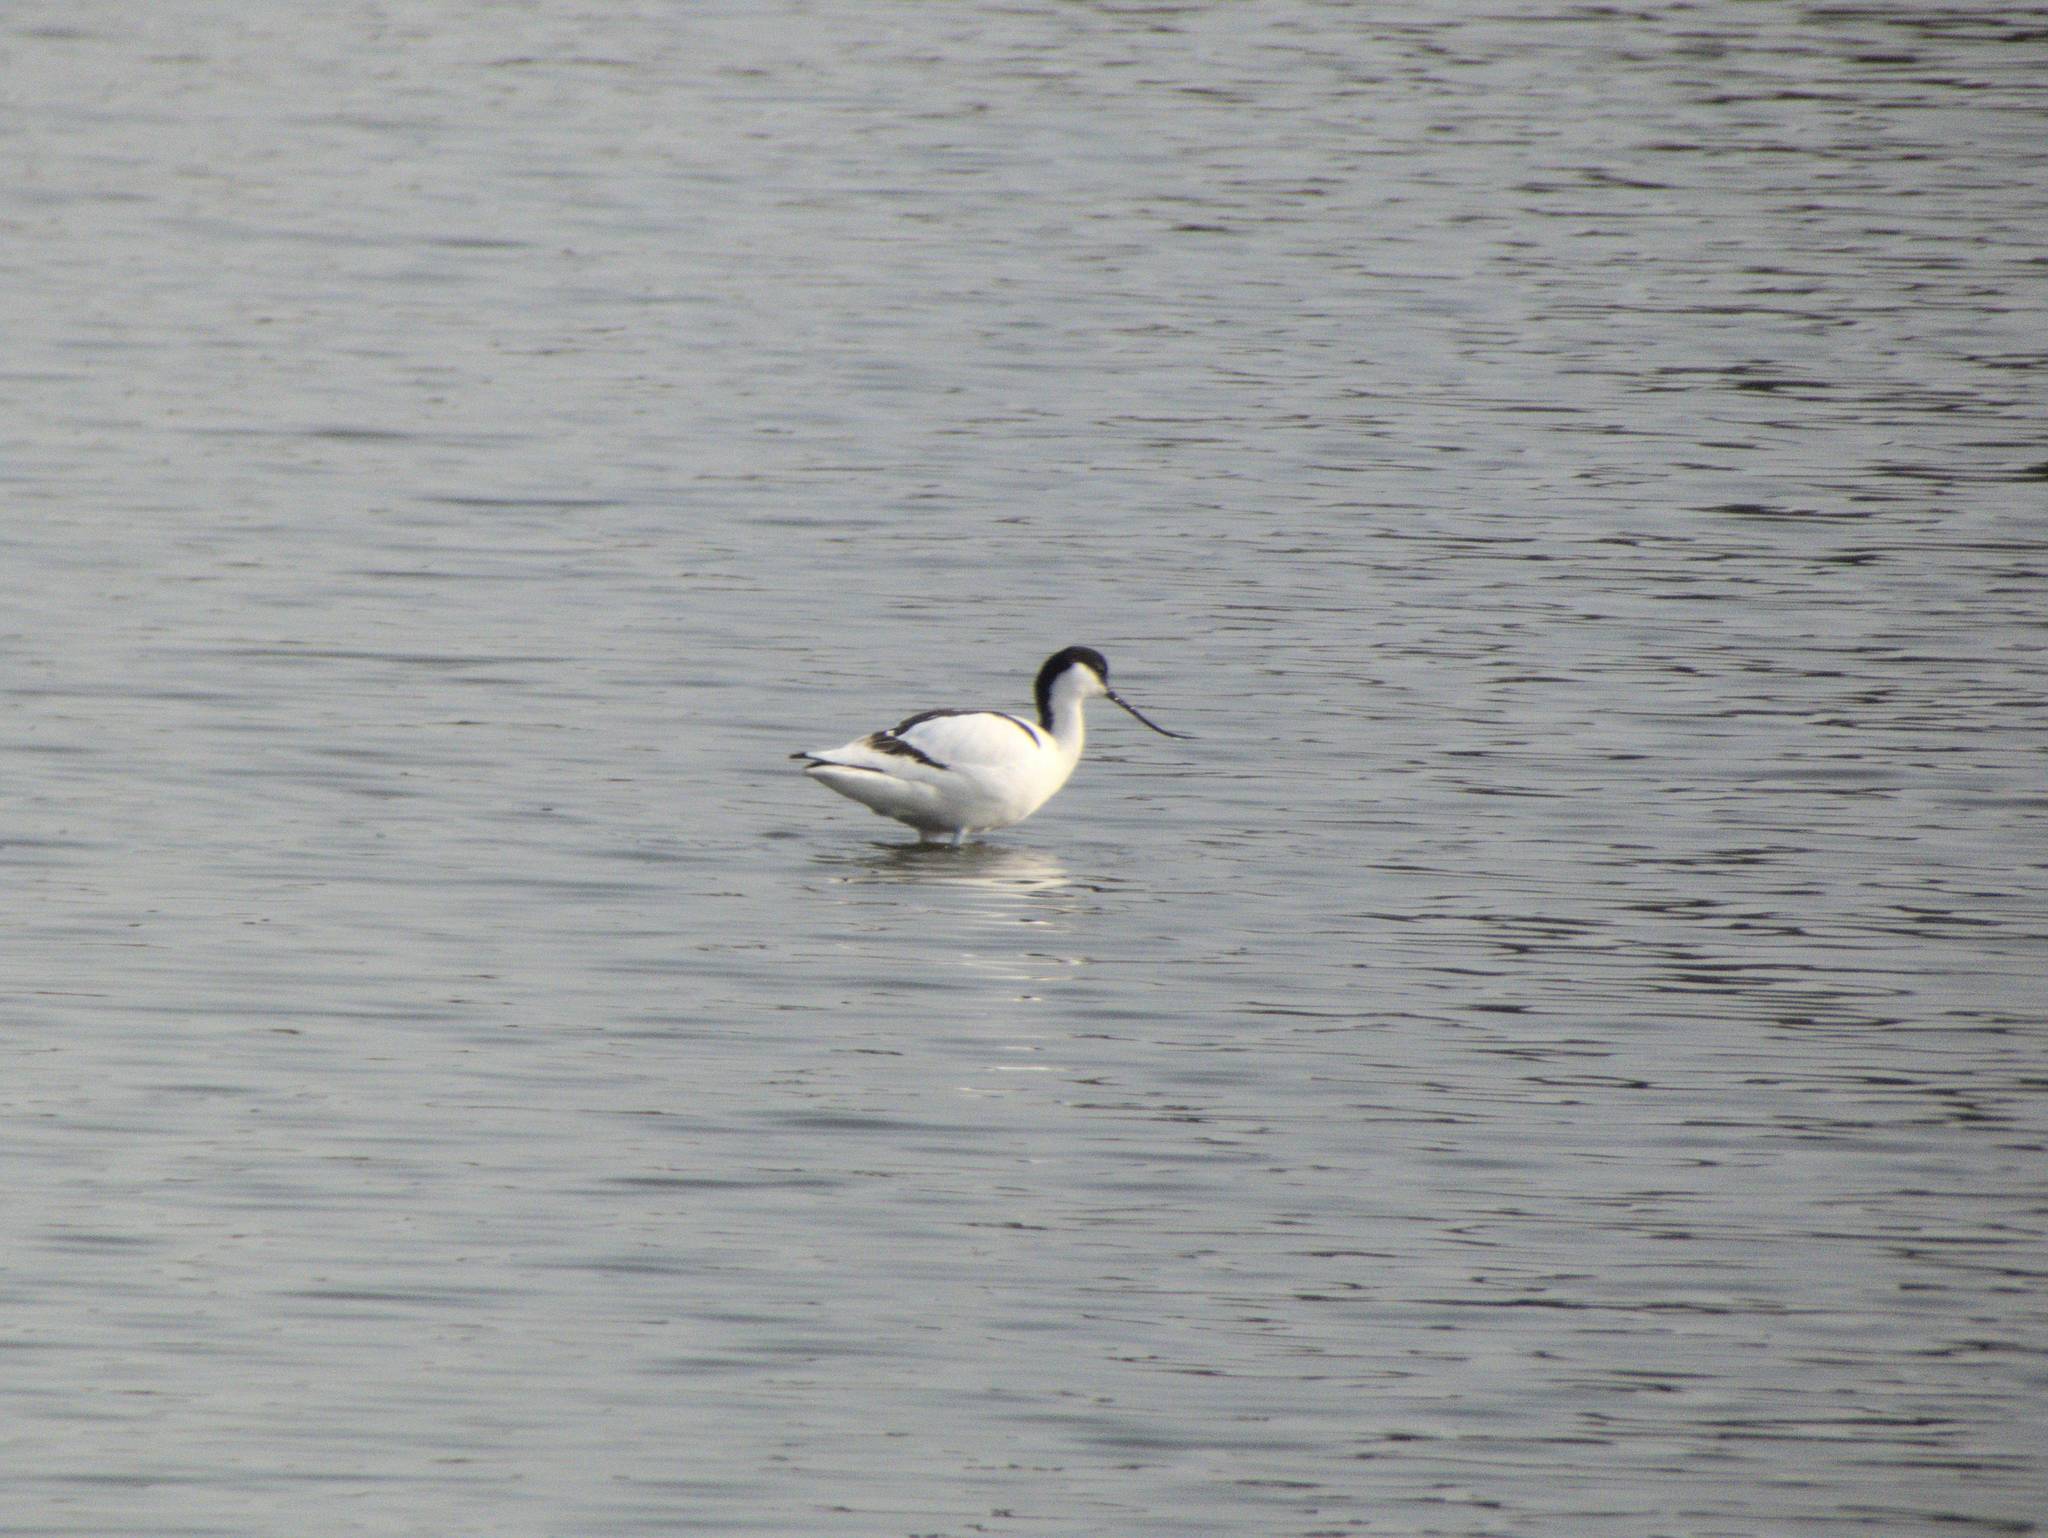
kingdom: Animalia
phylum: Chordata
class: Aves
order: Charadriiformes
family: Recurvirostridae
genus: Recurvirostra
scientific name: Recurvirostra avosetta
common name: Pied avocet
